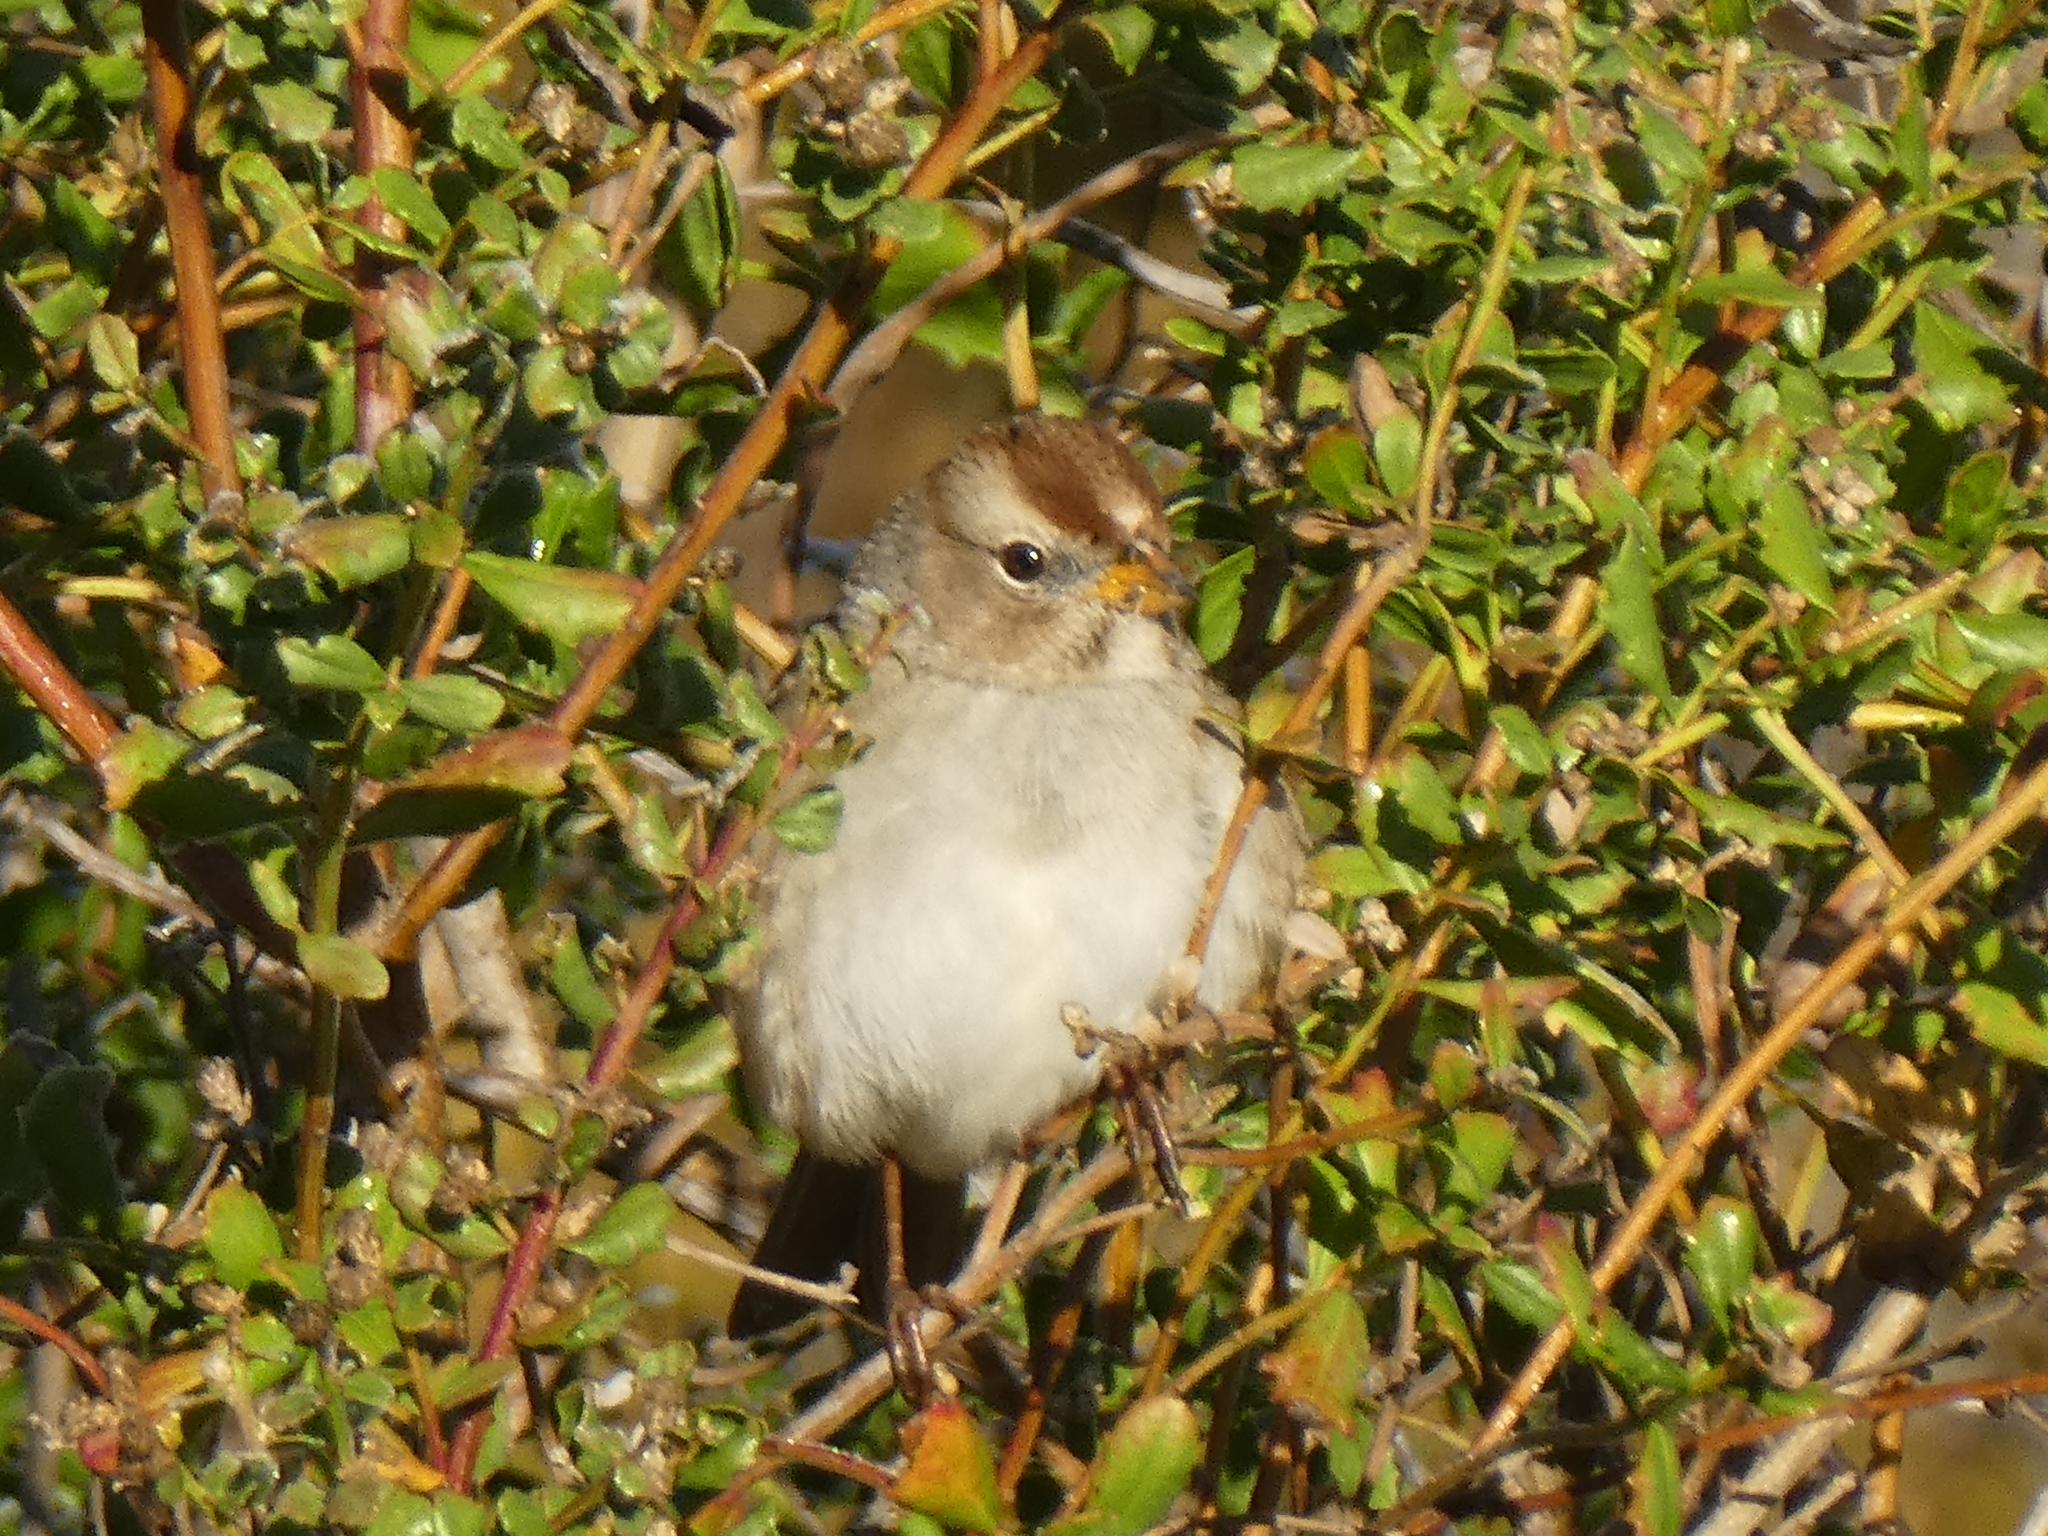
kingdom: Animalia
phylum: Chordata
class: Aves
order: Passeriformes
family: Passerellidae
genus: Zonotrichia
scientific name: Zonotrichia leucophrys
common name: White-crowned sparrow
